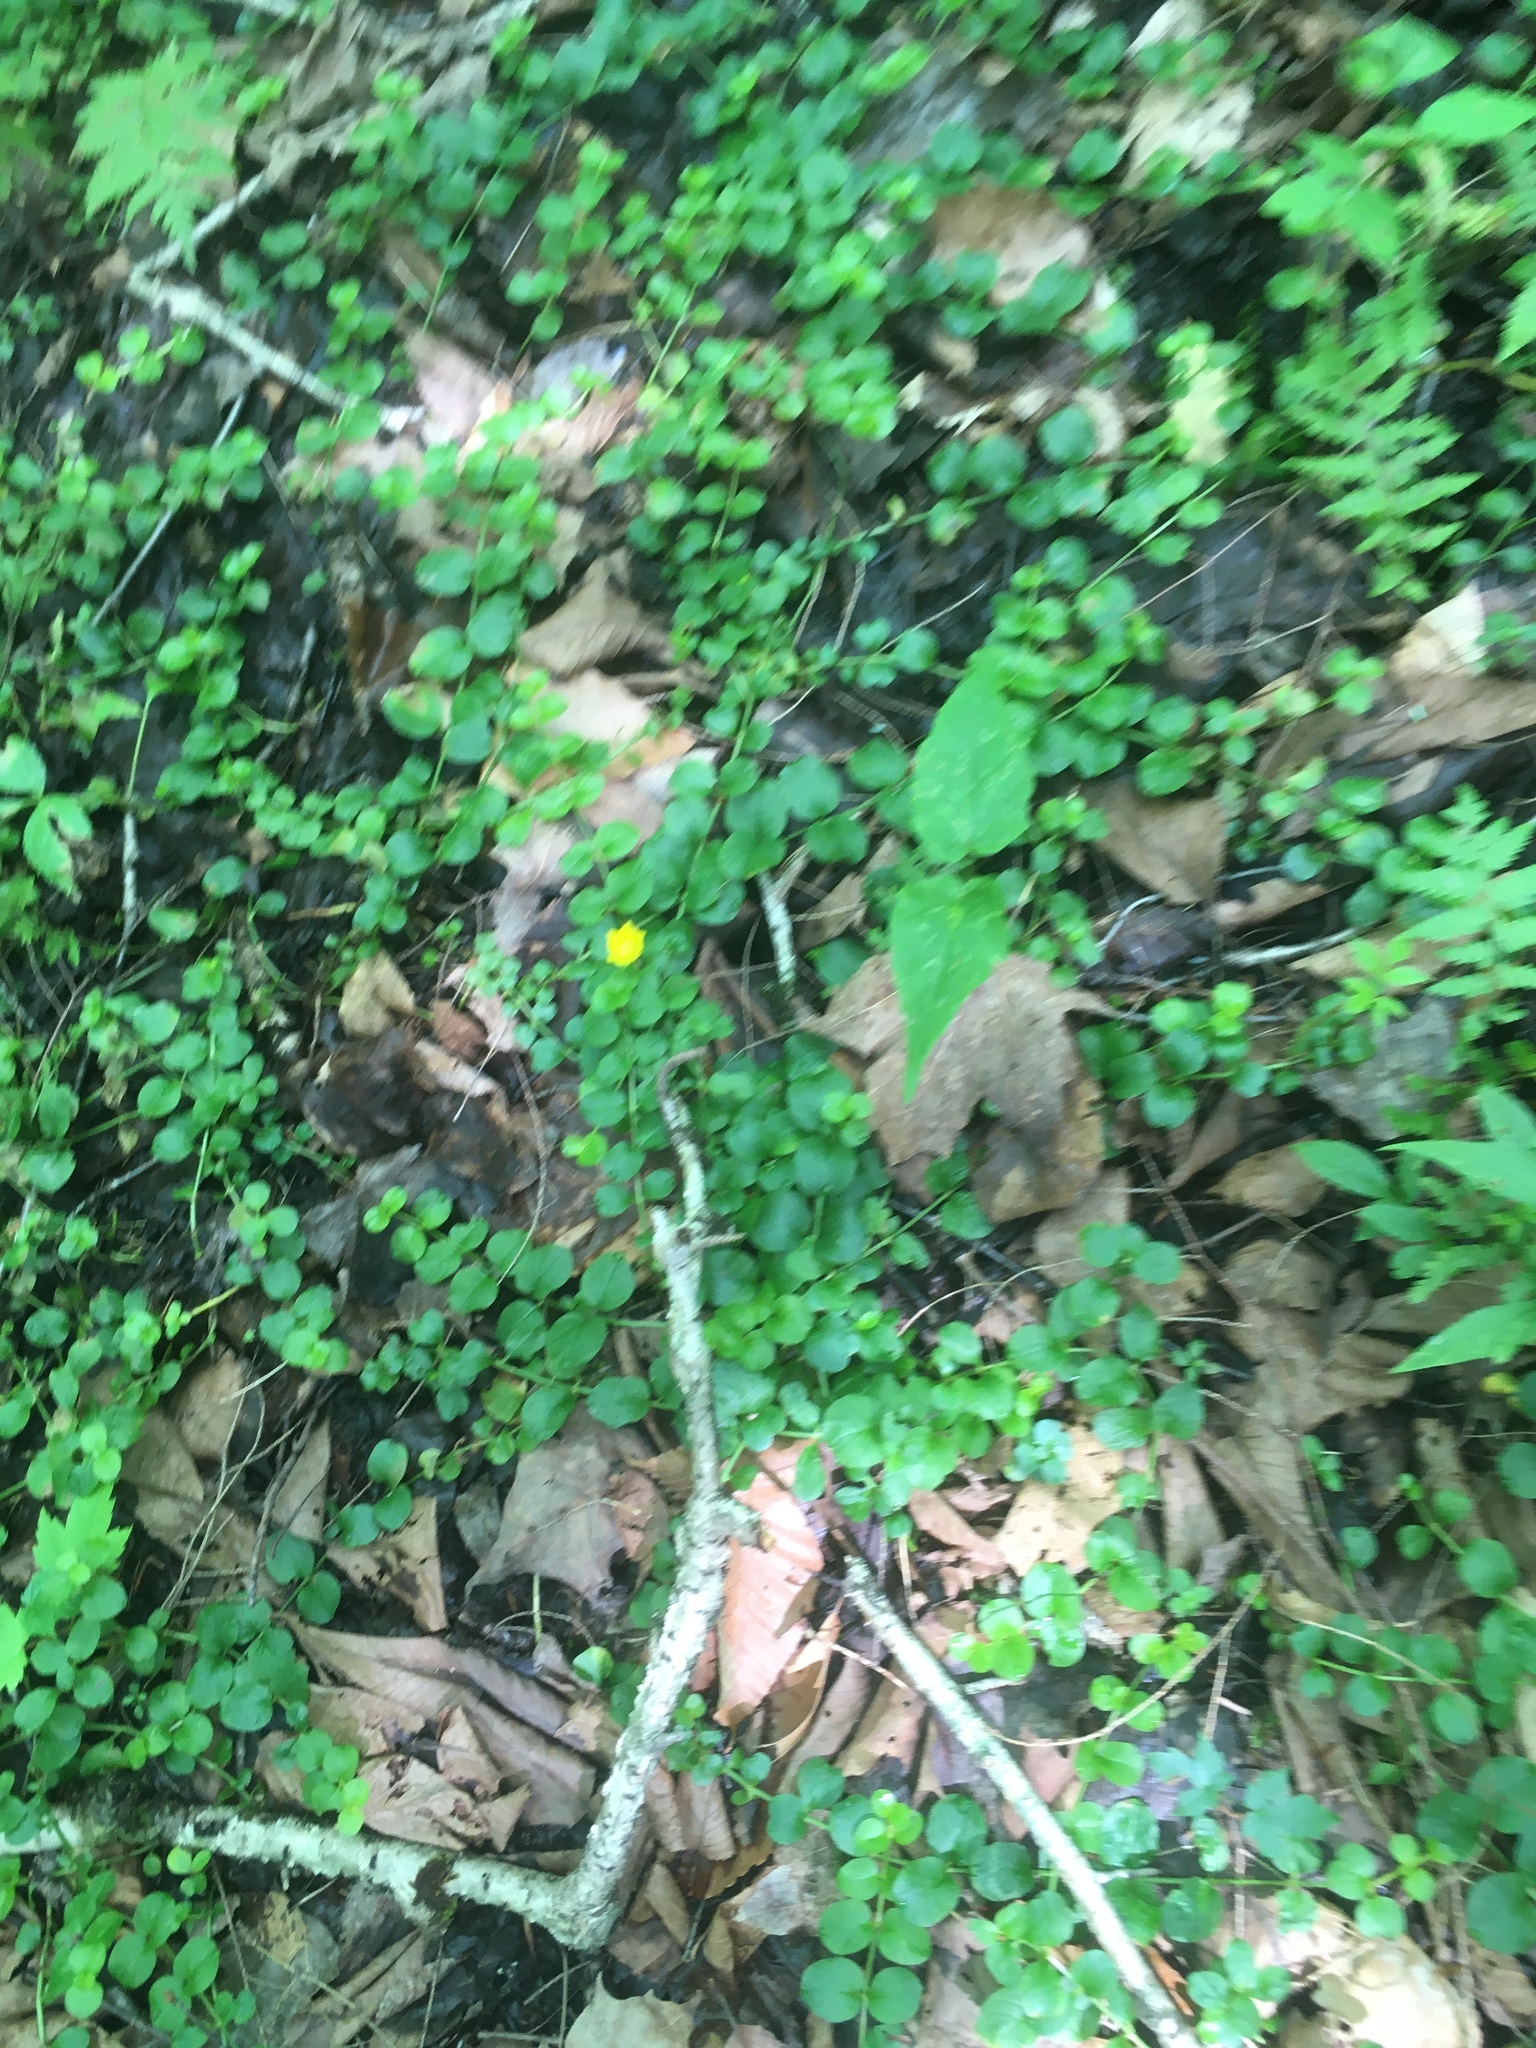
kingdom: Plantae
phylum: Tracheophyta
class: Magnoliopsida
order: Ericales
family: Primulaceae
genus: Lysimachia
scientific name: Lysimachia nummularia
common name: Moneywort
